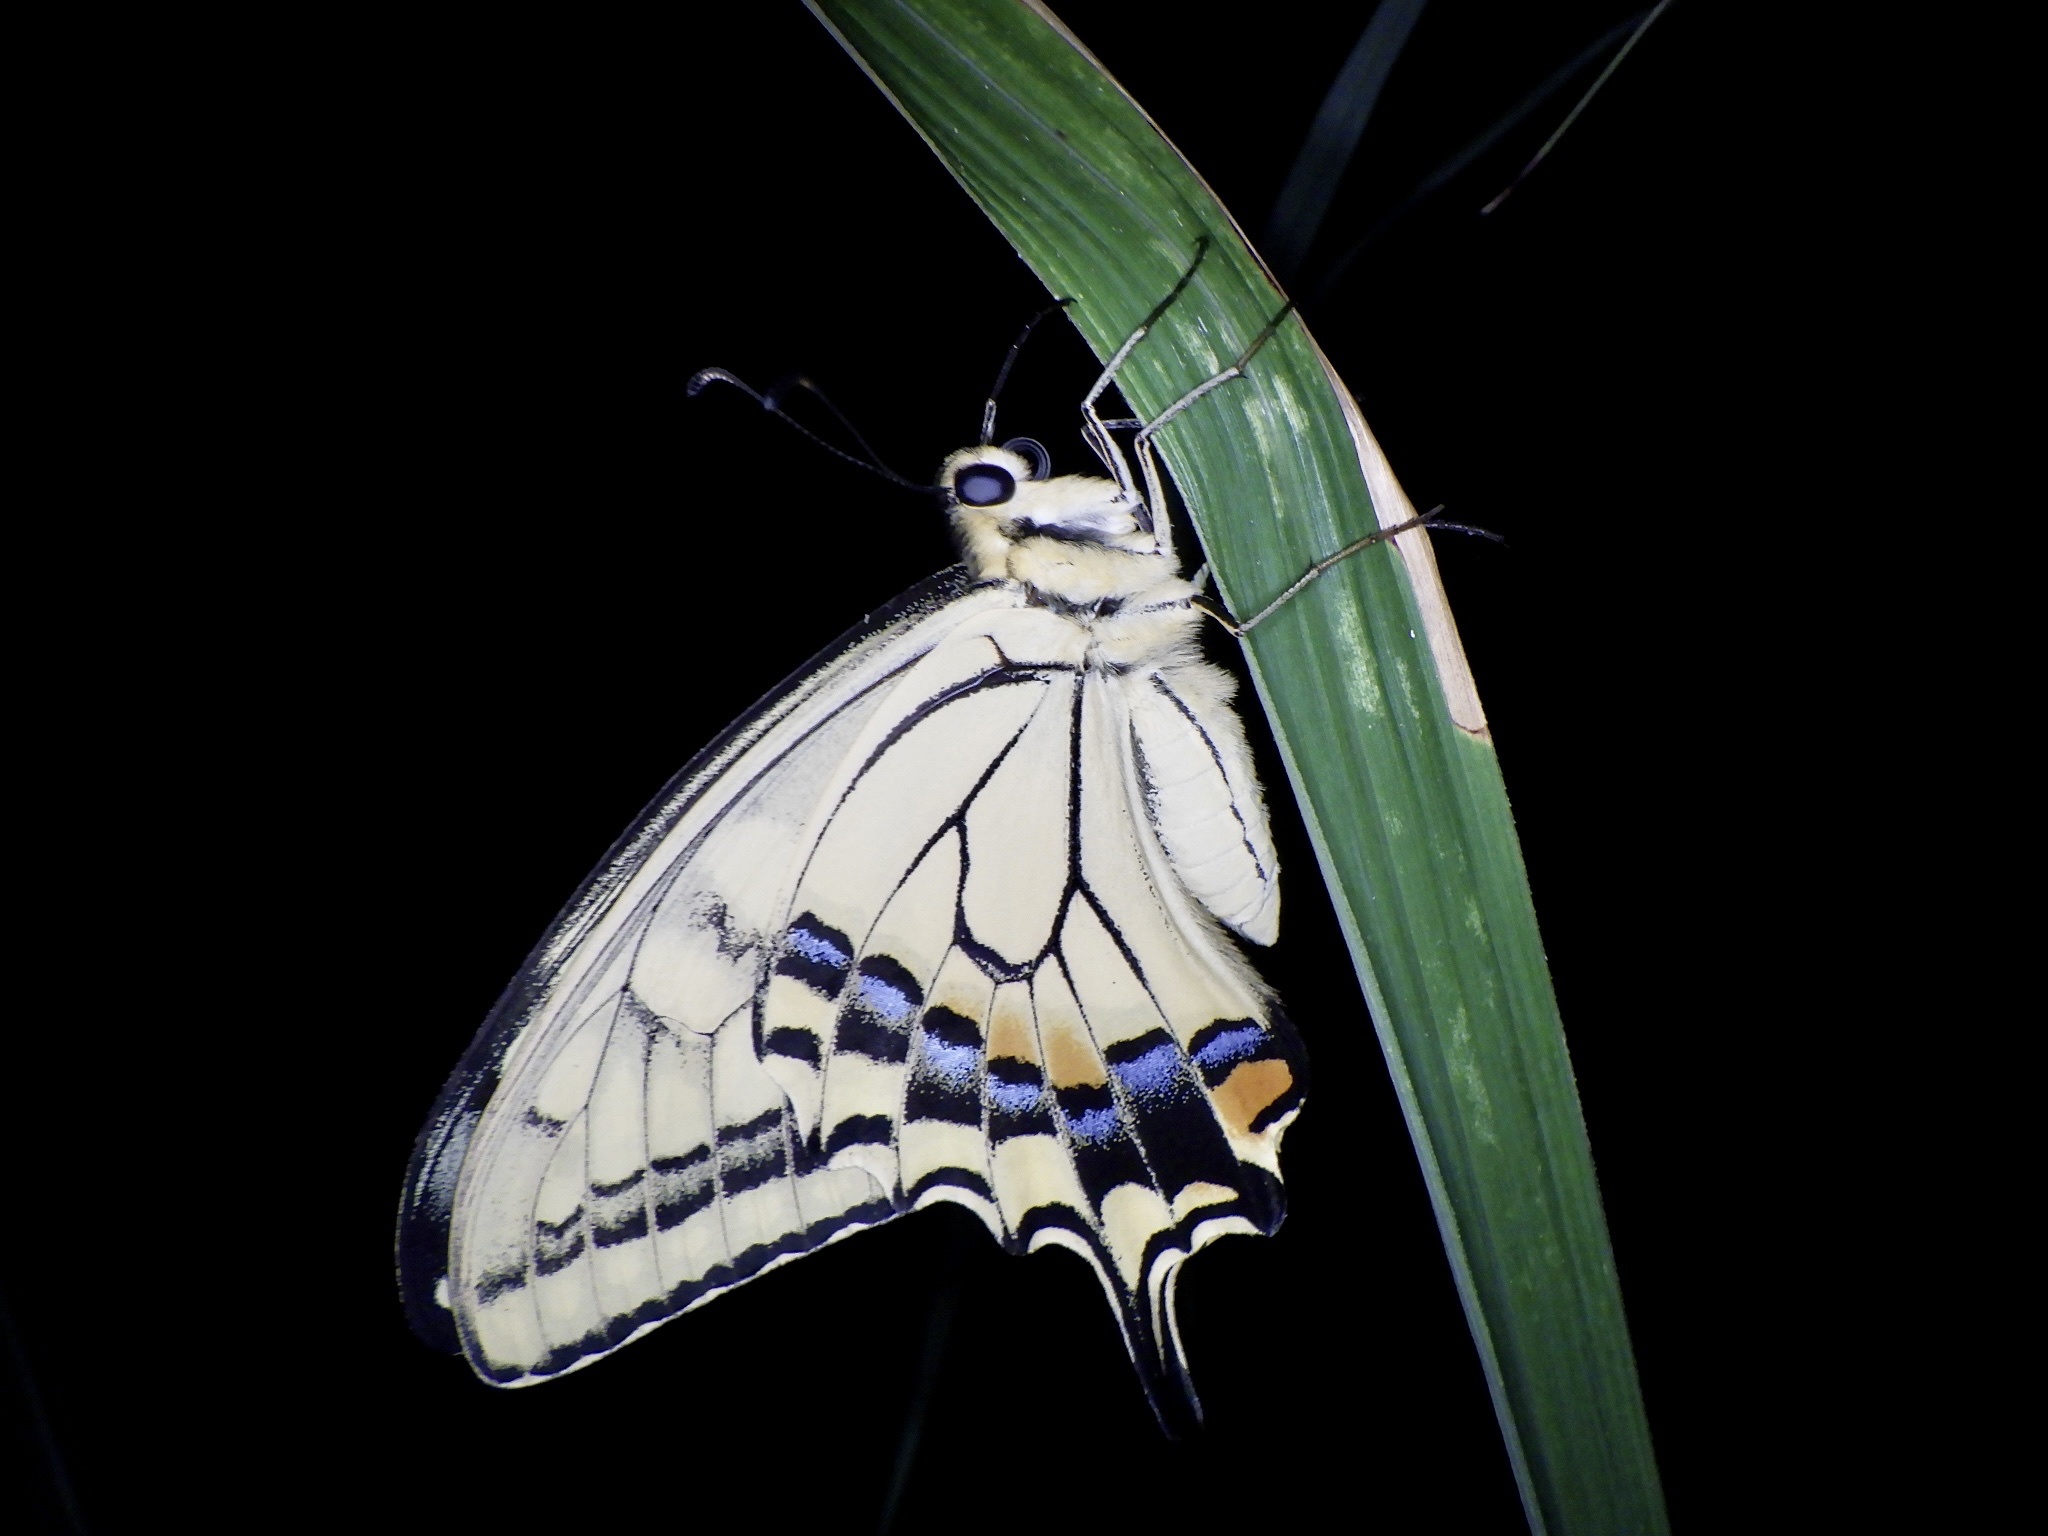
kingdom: Animalia
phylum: Arthropoda
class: Insecta
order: Lepidoptera
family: Papilionidae
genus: Papilio
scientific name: Papilio machaon
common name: Swallowtail
